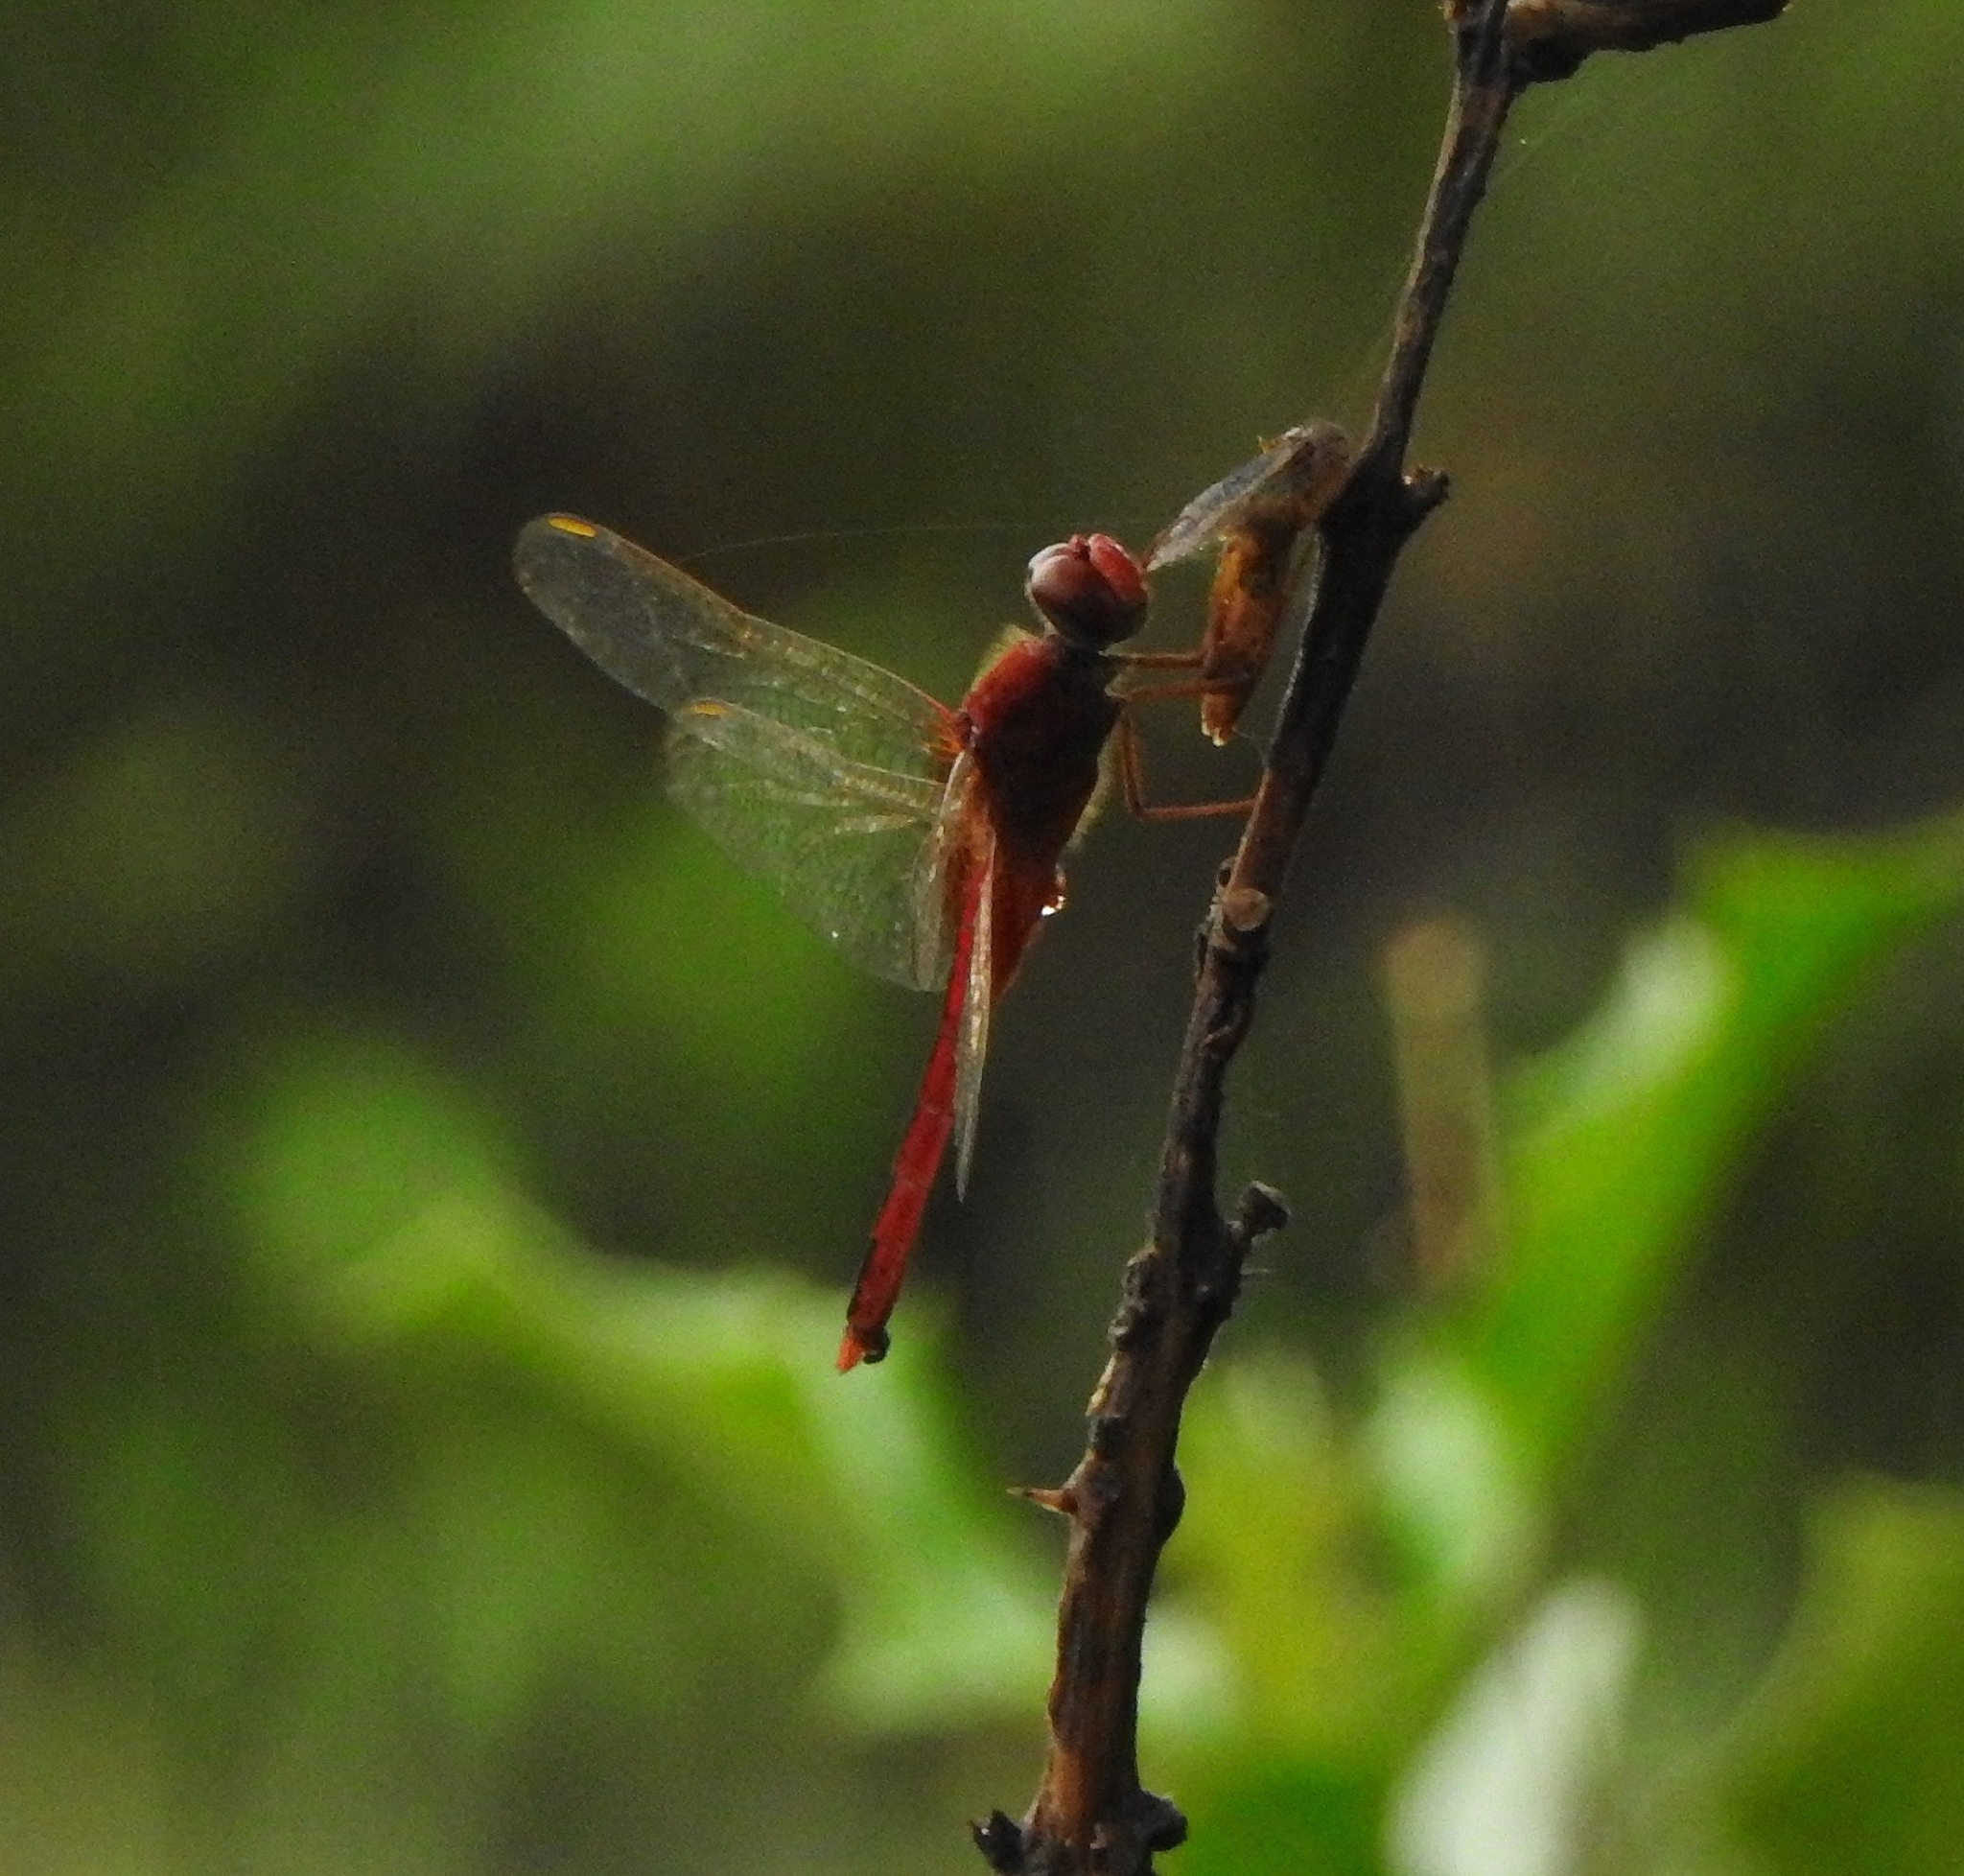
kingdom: Animalia
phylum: Arthropoda
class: Insecta
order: Odonata
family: Libellulidae
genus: Crocothemis
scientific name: Crocothemis servilia
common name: Scarlet skimmer
